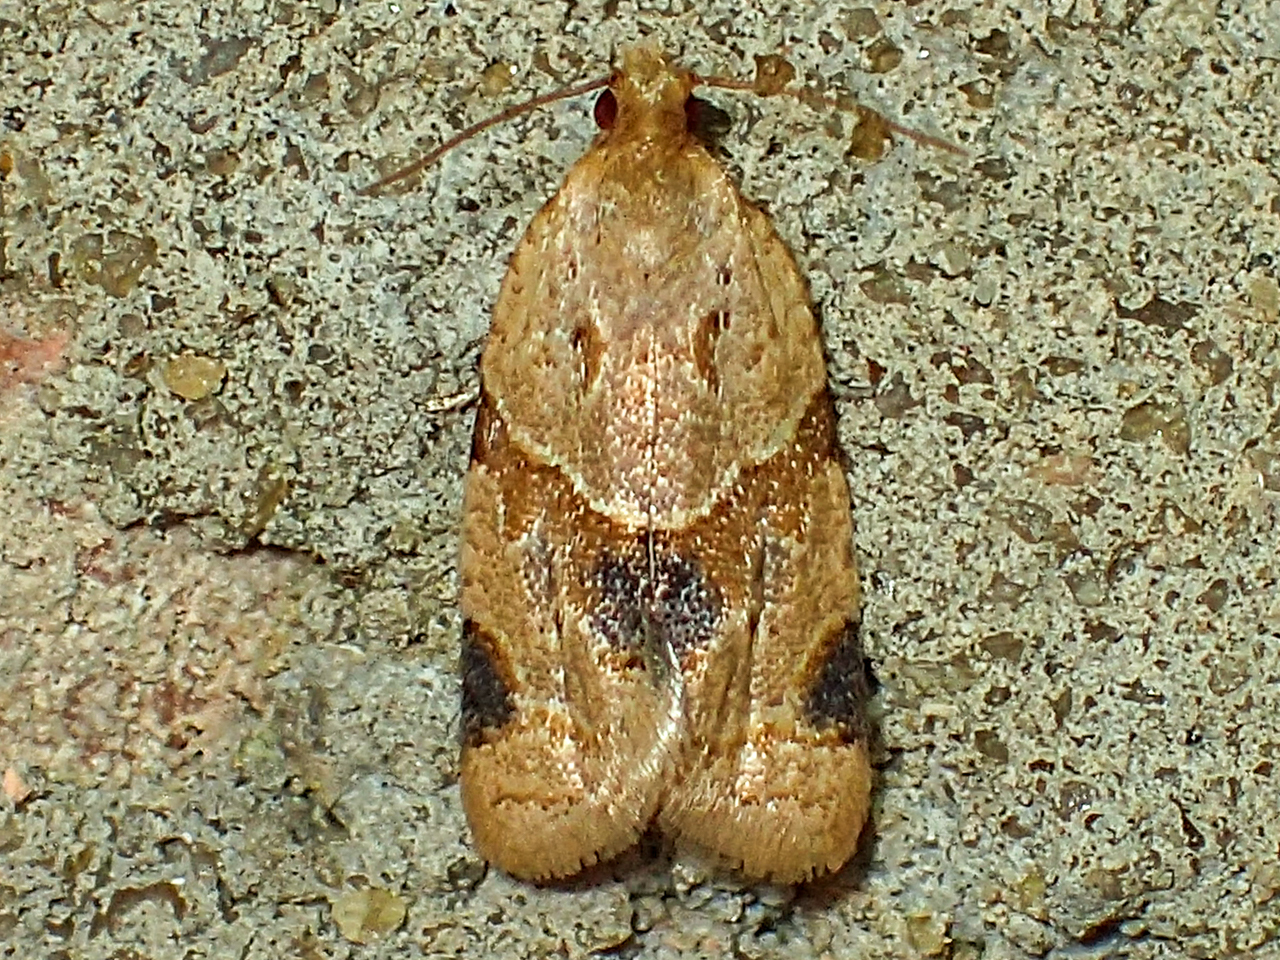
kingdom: Animalia
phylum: Arthropoda
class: Insecta
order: Lepidoptera
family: Tortricidae
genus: Clepsis
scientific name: Clepsis peritana
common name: Garden tortrix
